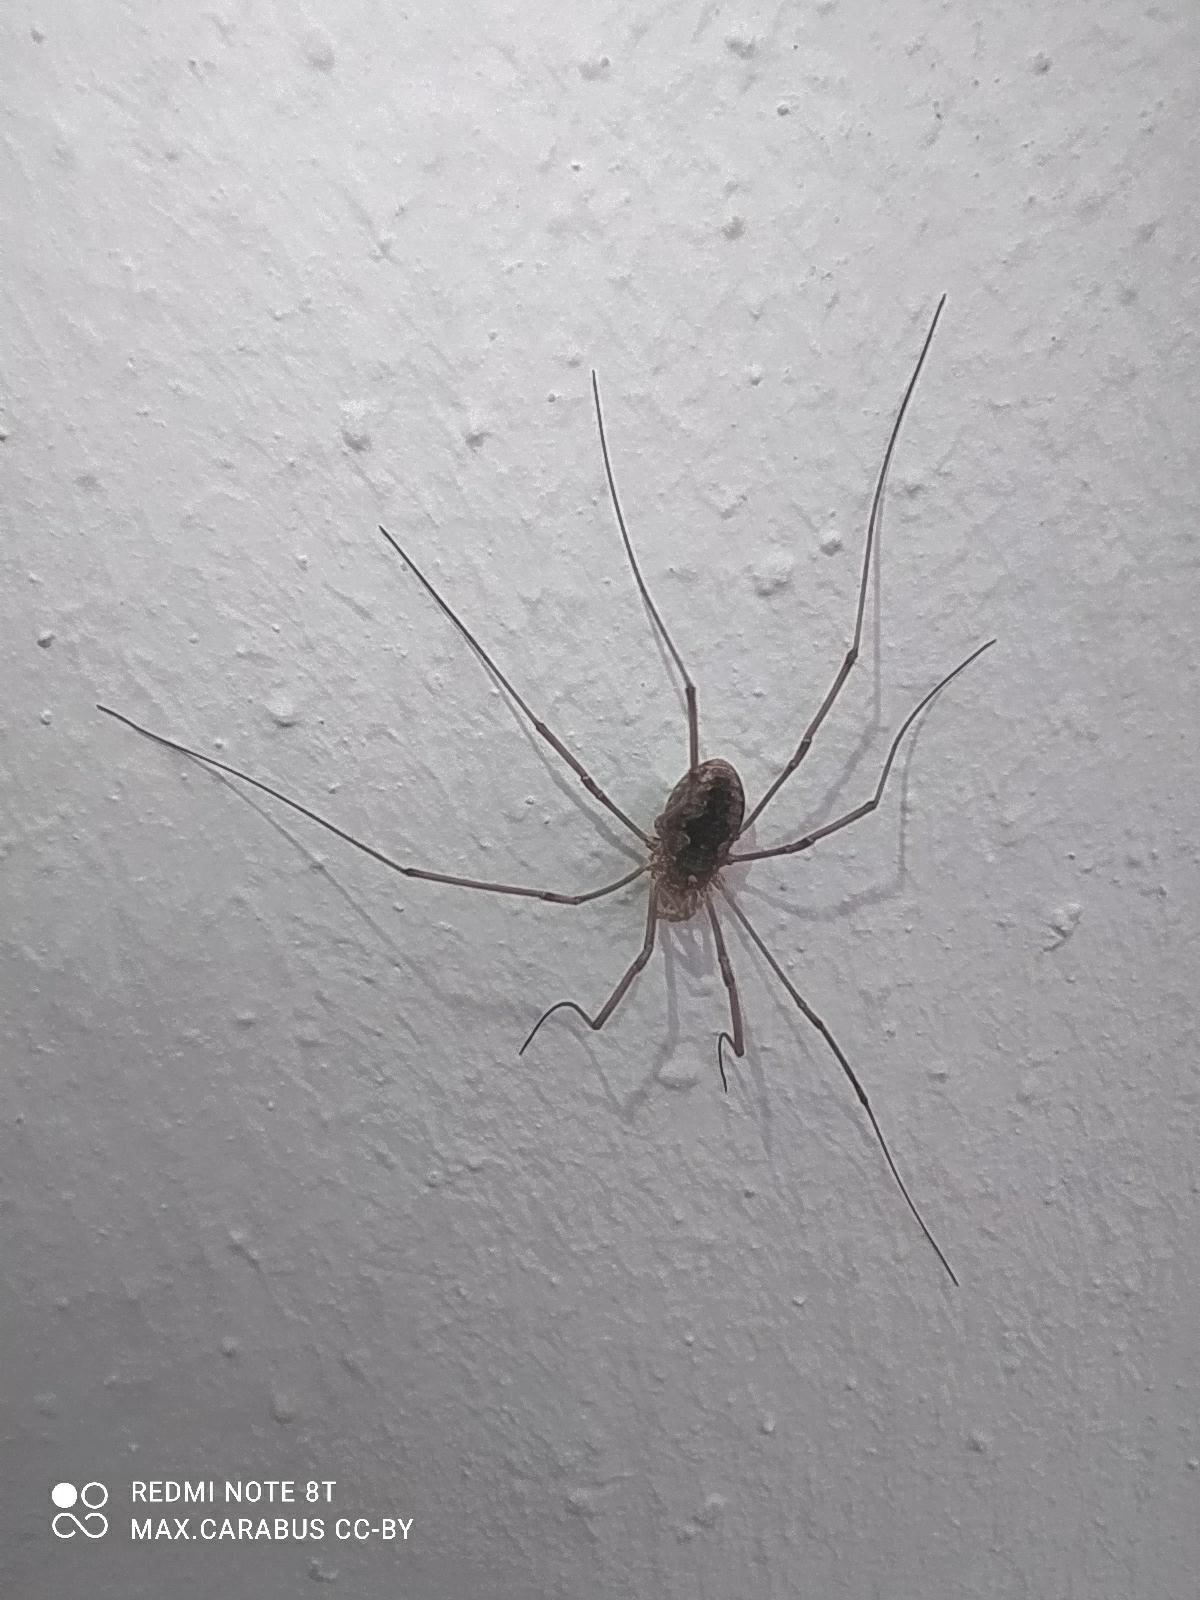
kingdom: Animalia
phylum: Arthropoda
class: Arachnida
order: Opiliones
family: Phalangiidae
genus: Phalangium
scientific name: Phalangium opilio
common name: Daddy longleg
